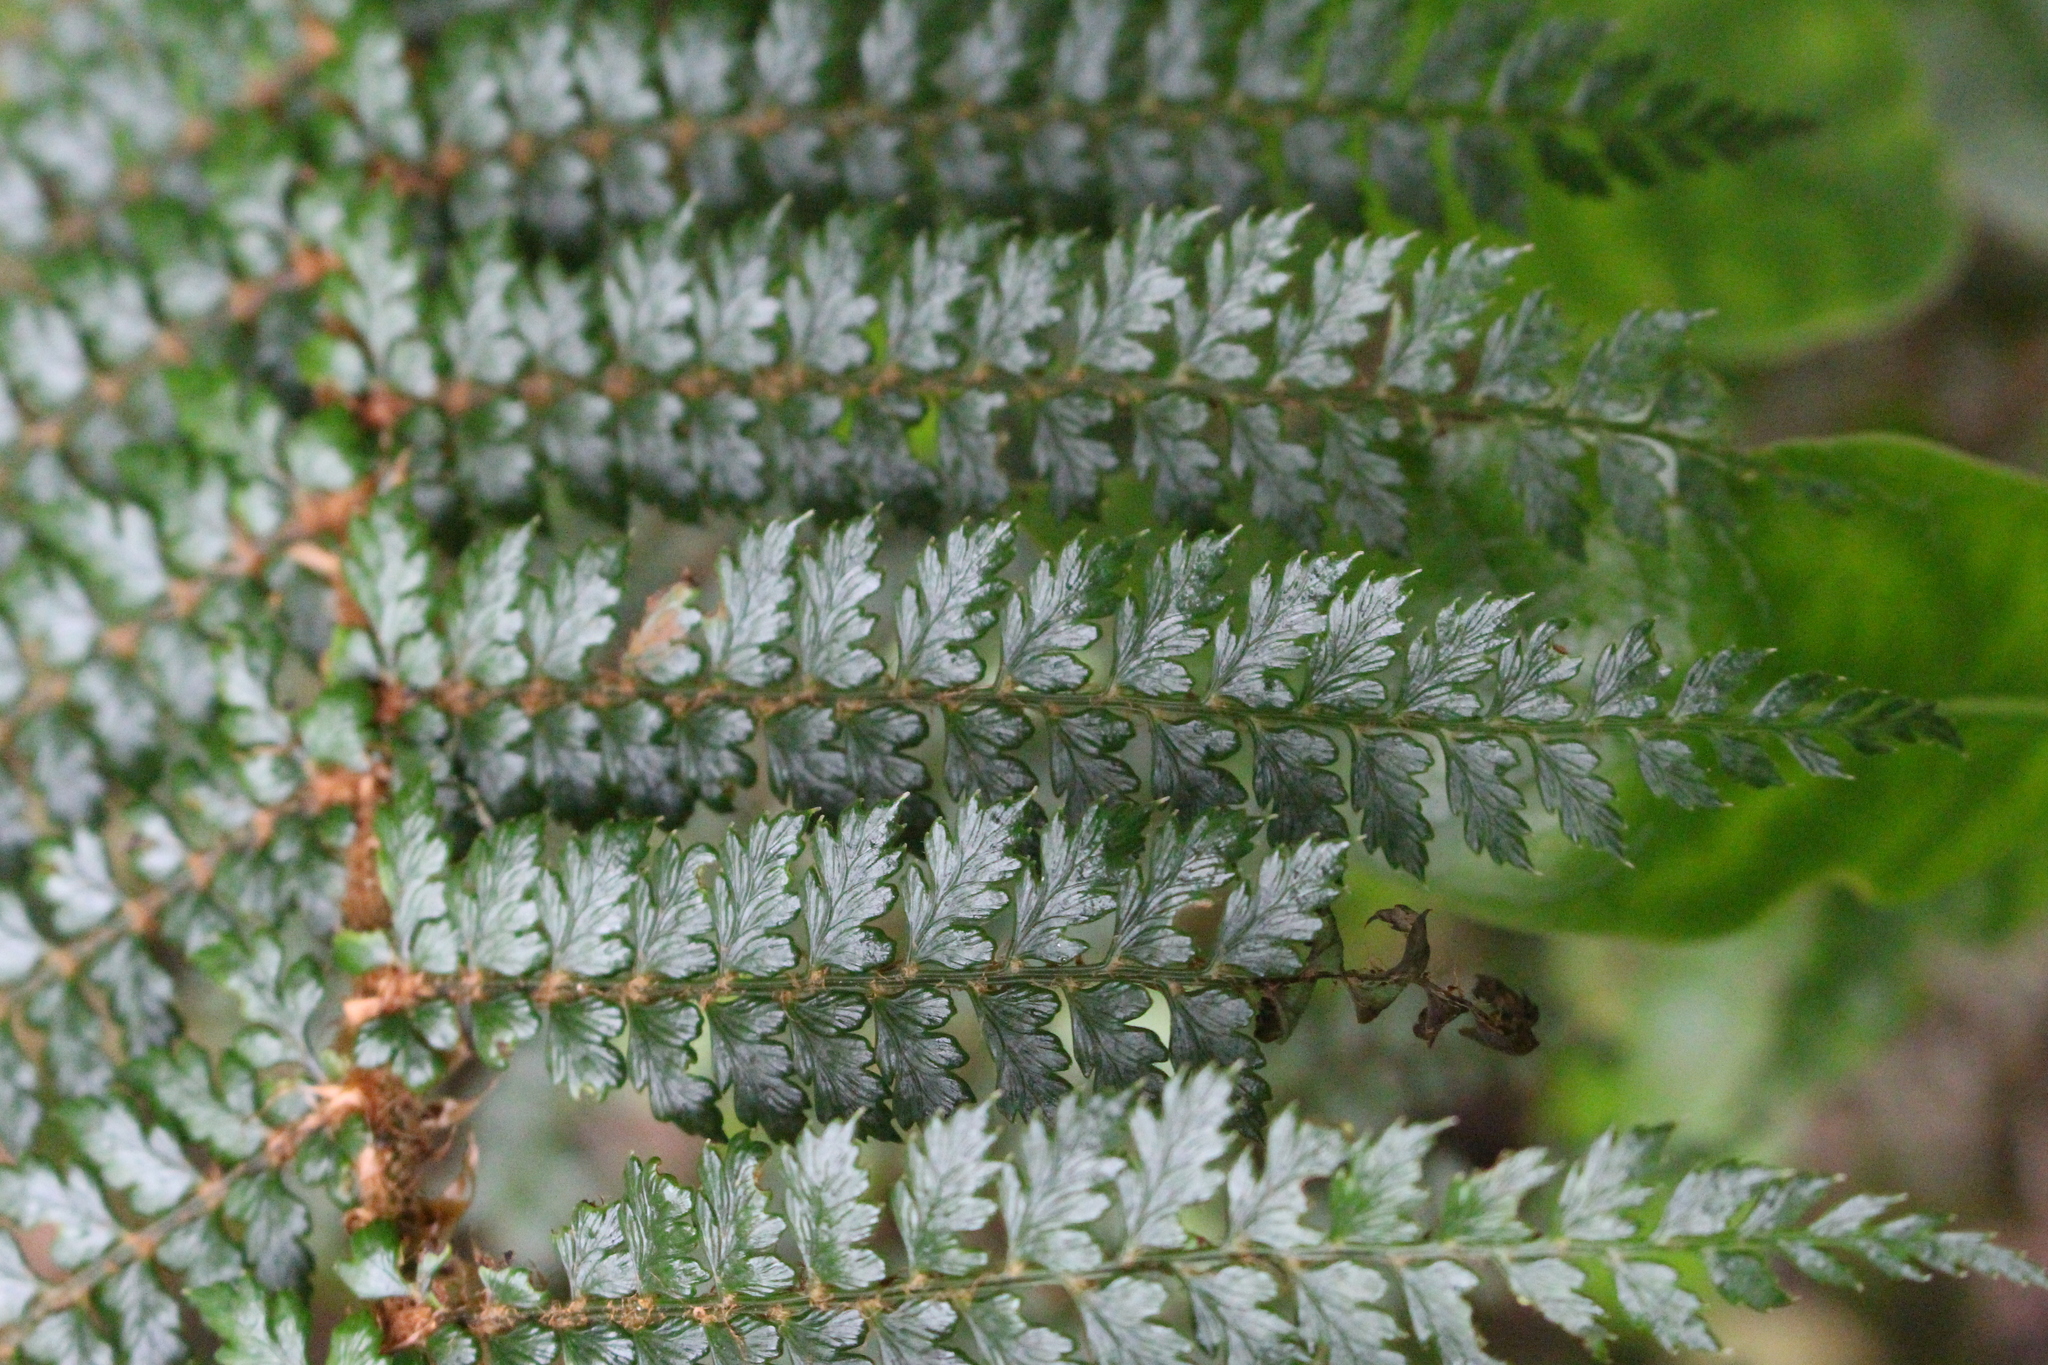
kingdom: Plantae
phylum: Tracheophyta
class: Polypodiopsida
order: Polypodiales
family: Dryopteridaceae
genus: Polystichum
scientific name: Polystichum vestitum
